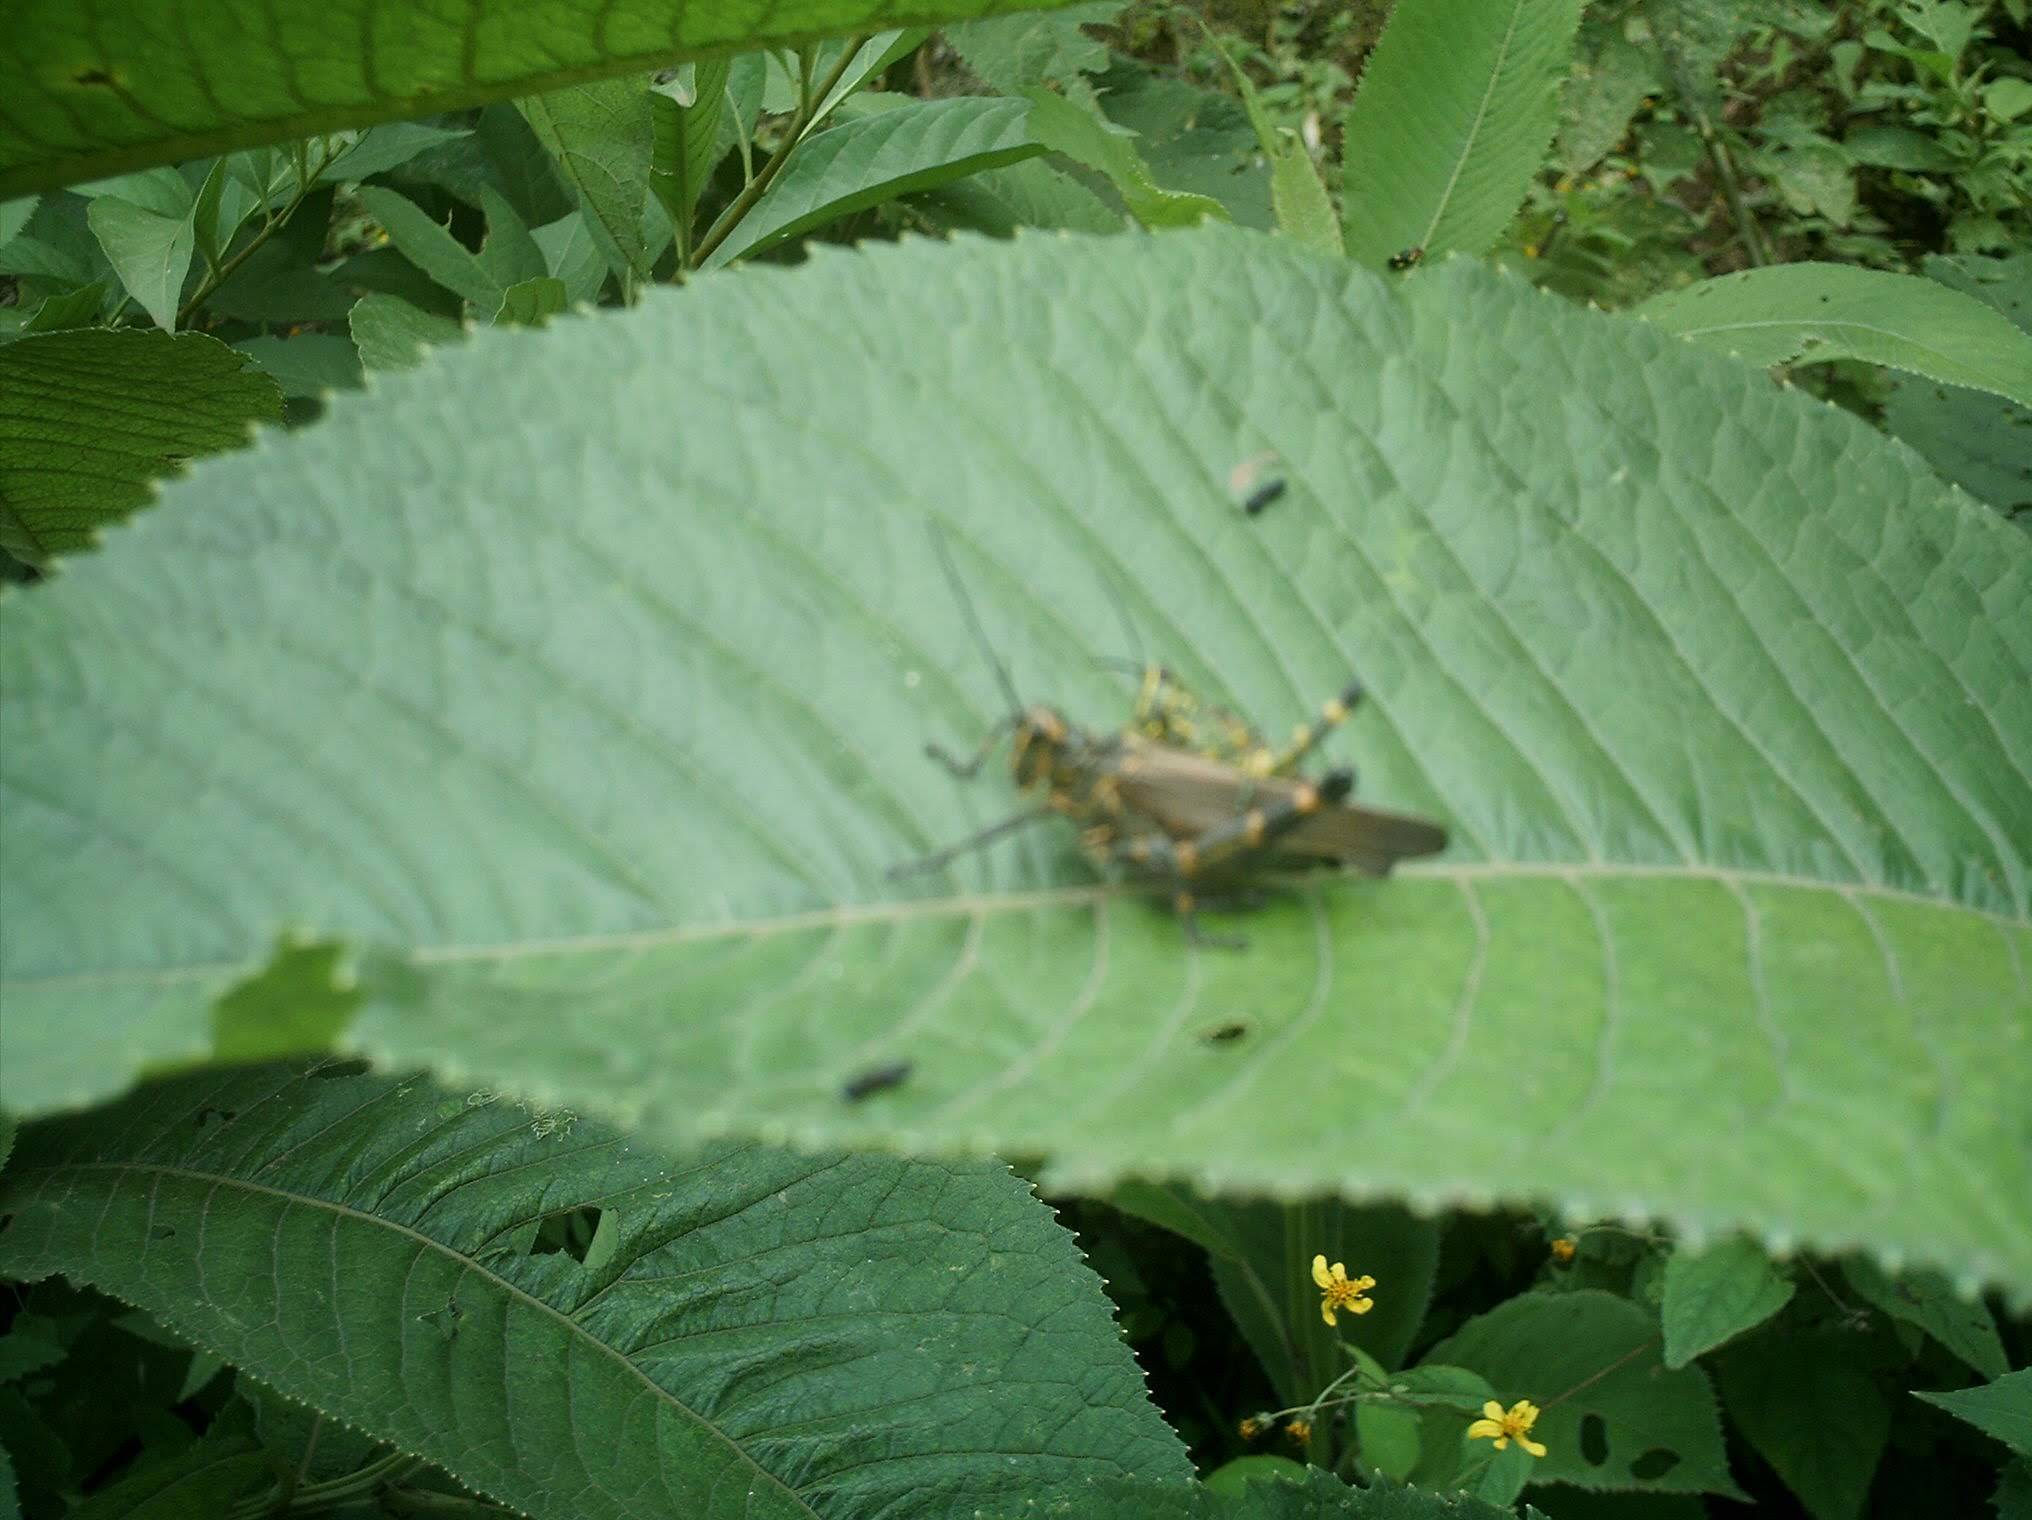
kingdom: Animalia
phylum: Arthropoda
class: Insecta
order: Orthoptera
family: Romaleidae
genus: Chromacris
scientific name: Chromacris speciosa
